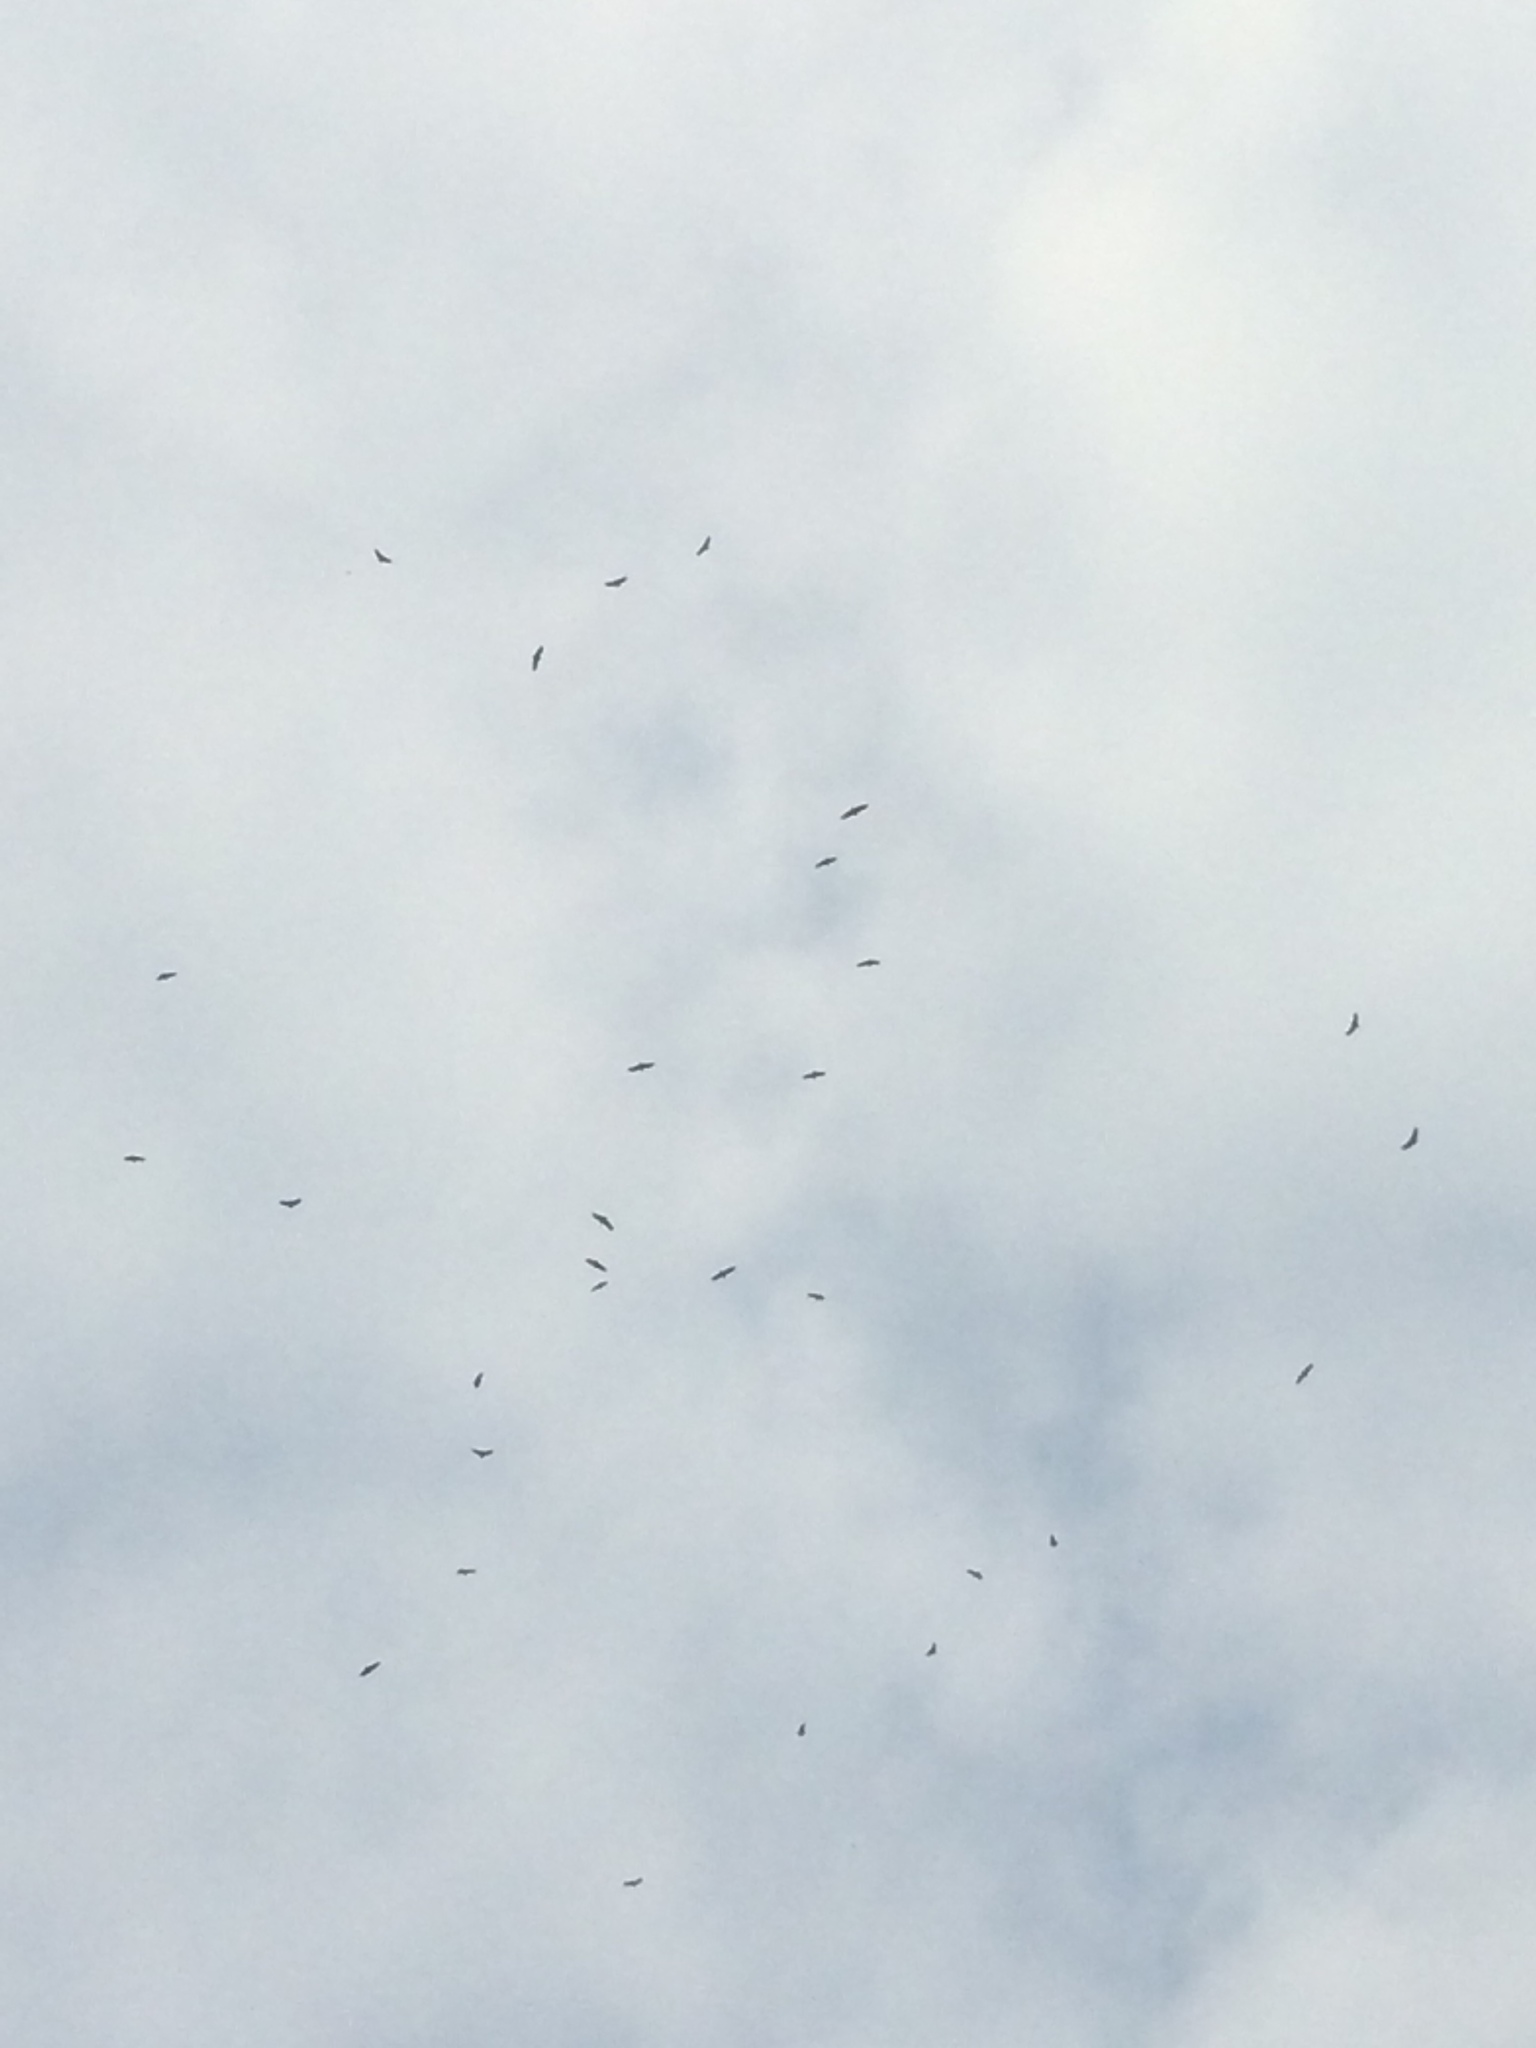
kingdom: Animalia
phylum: Chordata
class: Aves
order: Accipitriformes
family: Cathartidae
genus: Coragyps
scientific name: Coragyps atratus
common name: Black vulture
